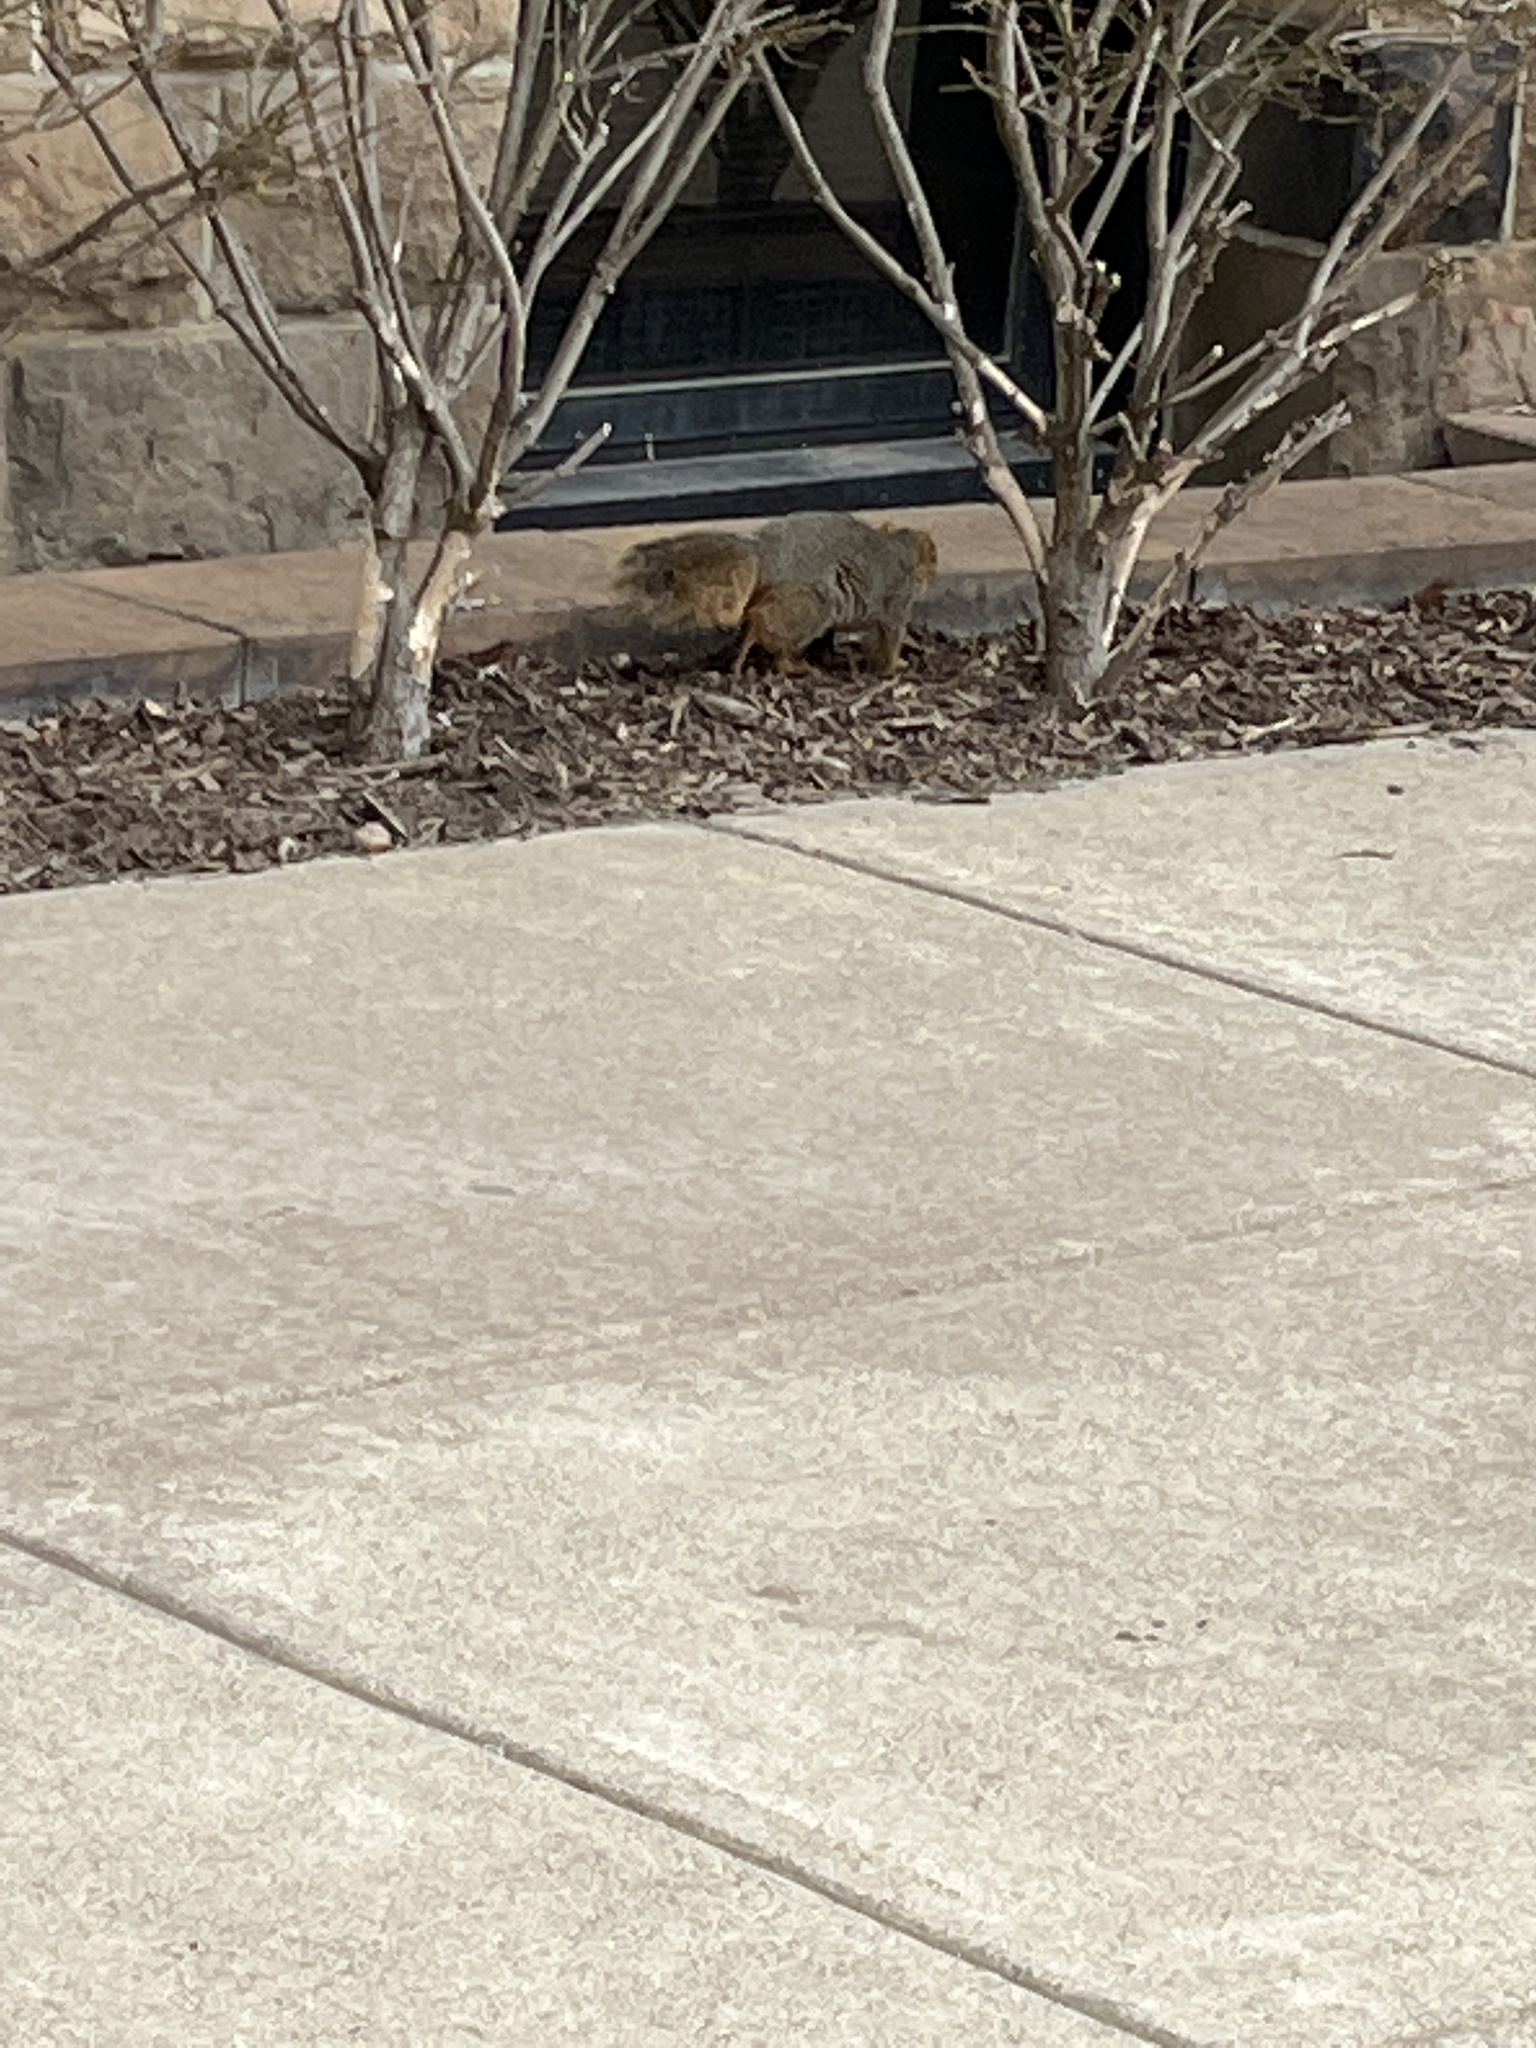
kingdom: Animalia
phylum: Chordata
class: Mammalia
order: Rodentia
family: Sciuridae
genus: Sciurus
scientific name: Sciurus niger
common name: Fox squirrel
